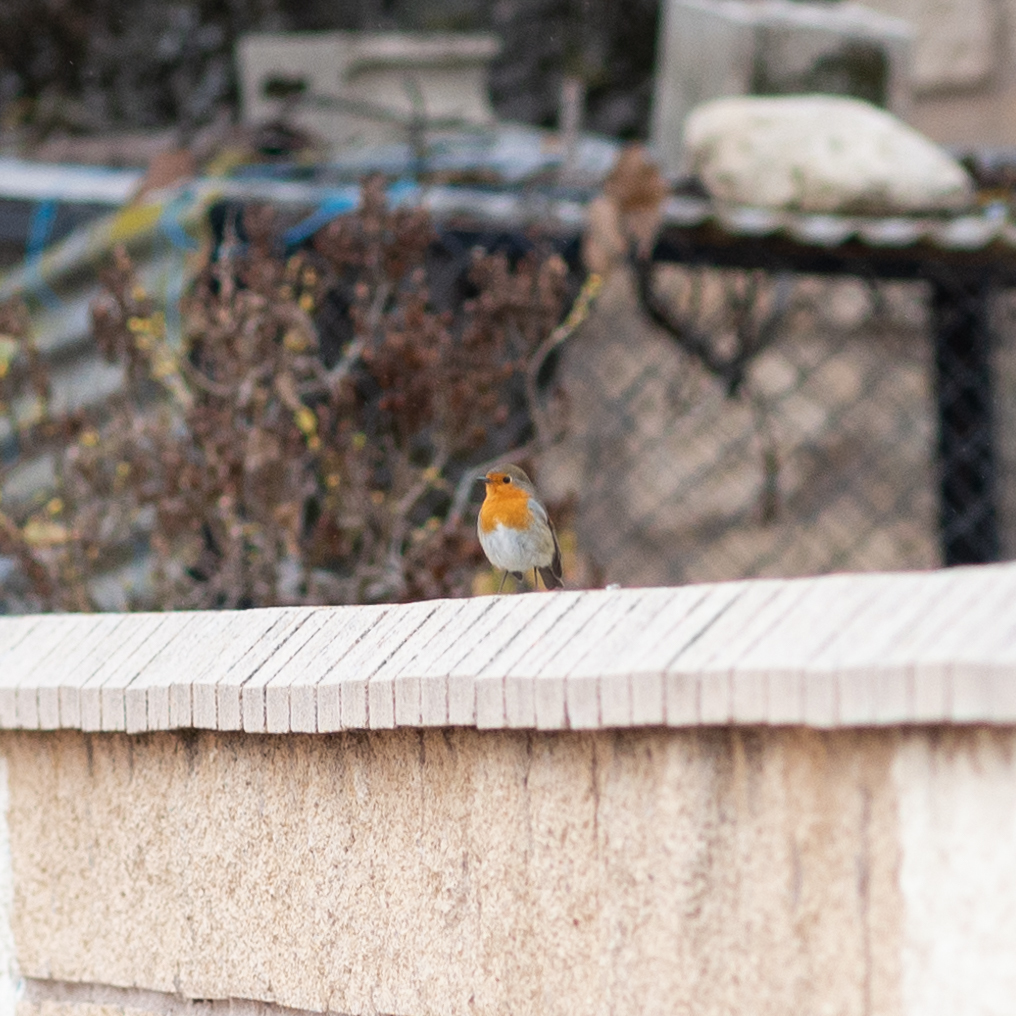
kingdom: Animalia
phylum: Chordata
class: Aves
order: Passeriformes
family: Muscicapidae
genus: Erithacus
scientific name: Erithacus rubecula
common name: European robin
